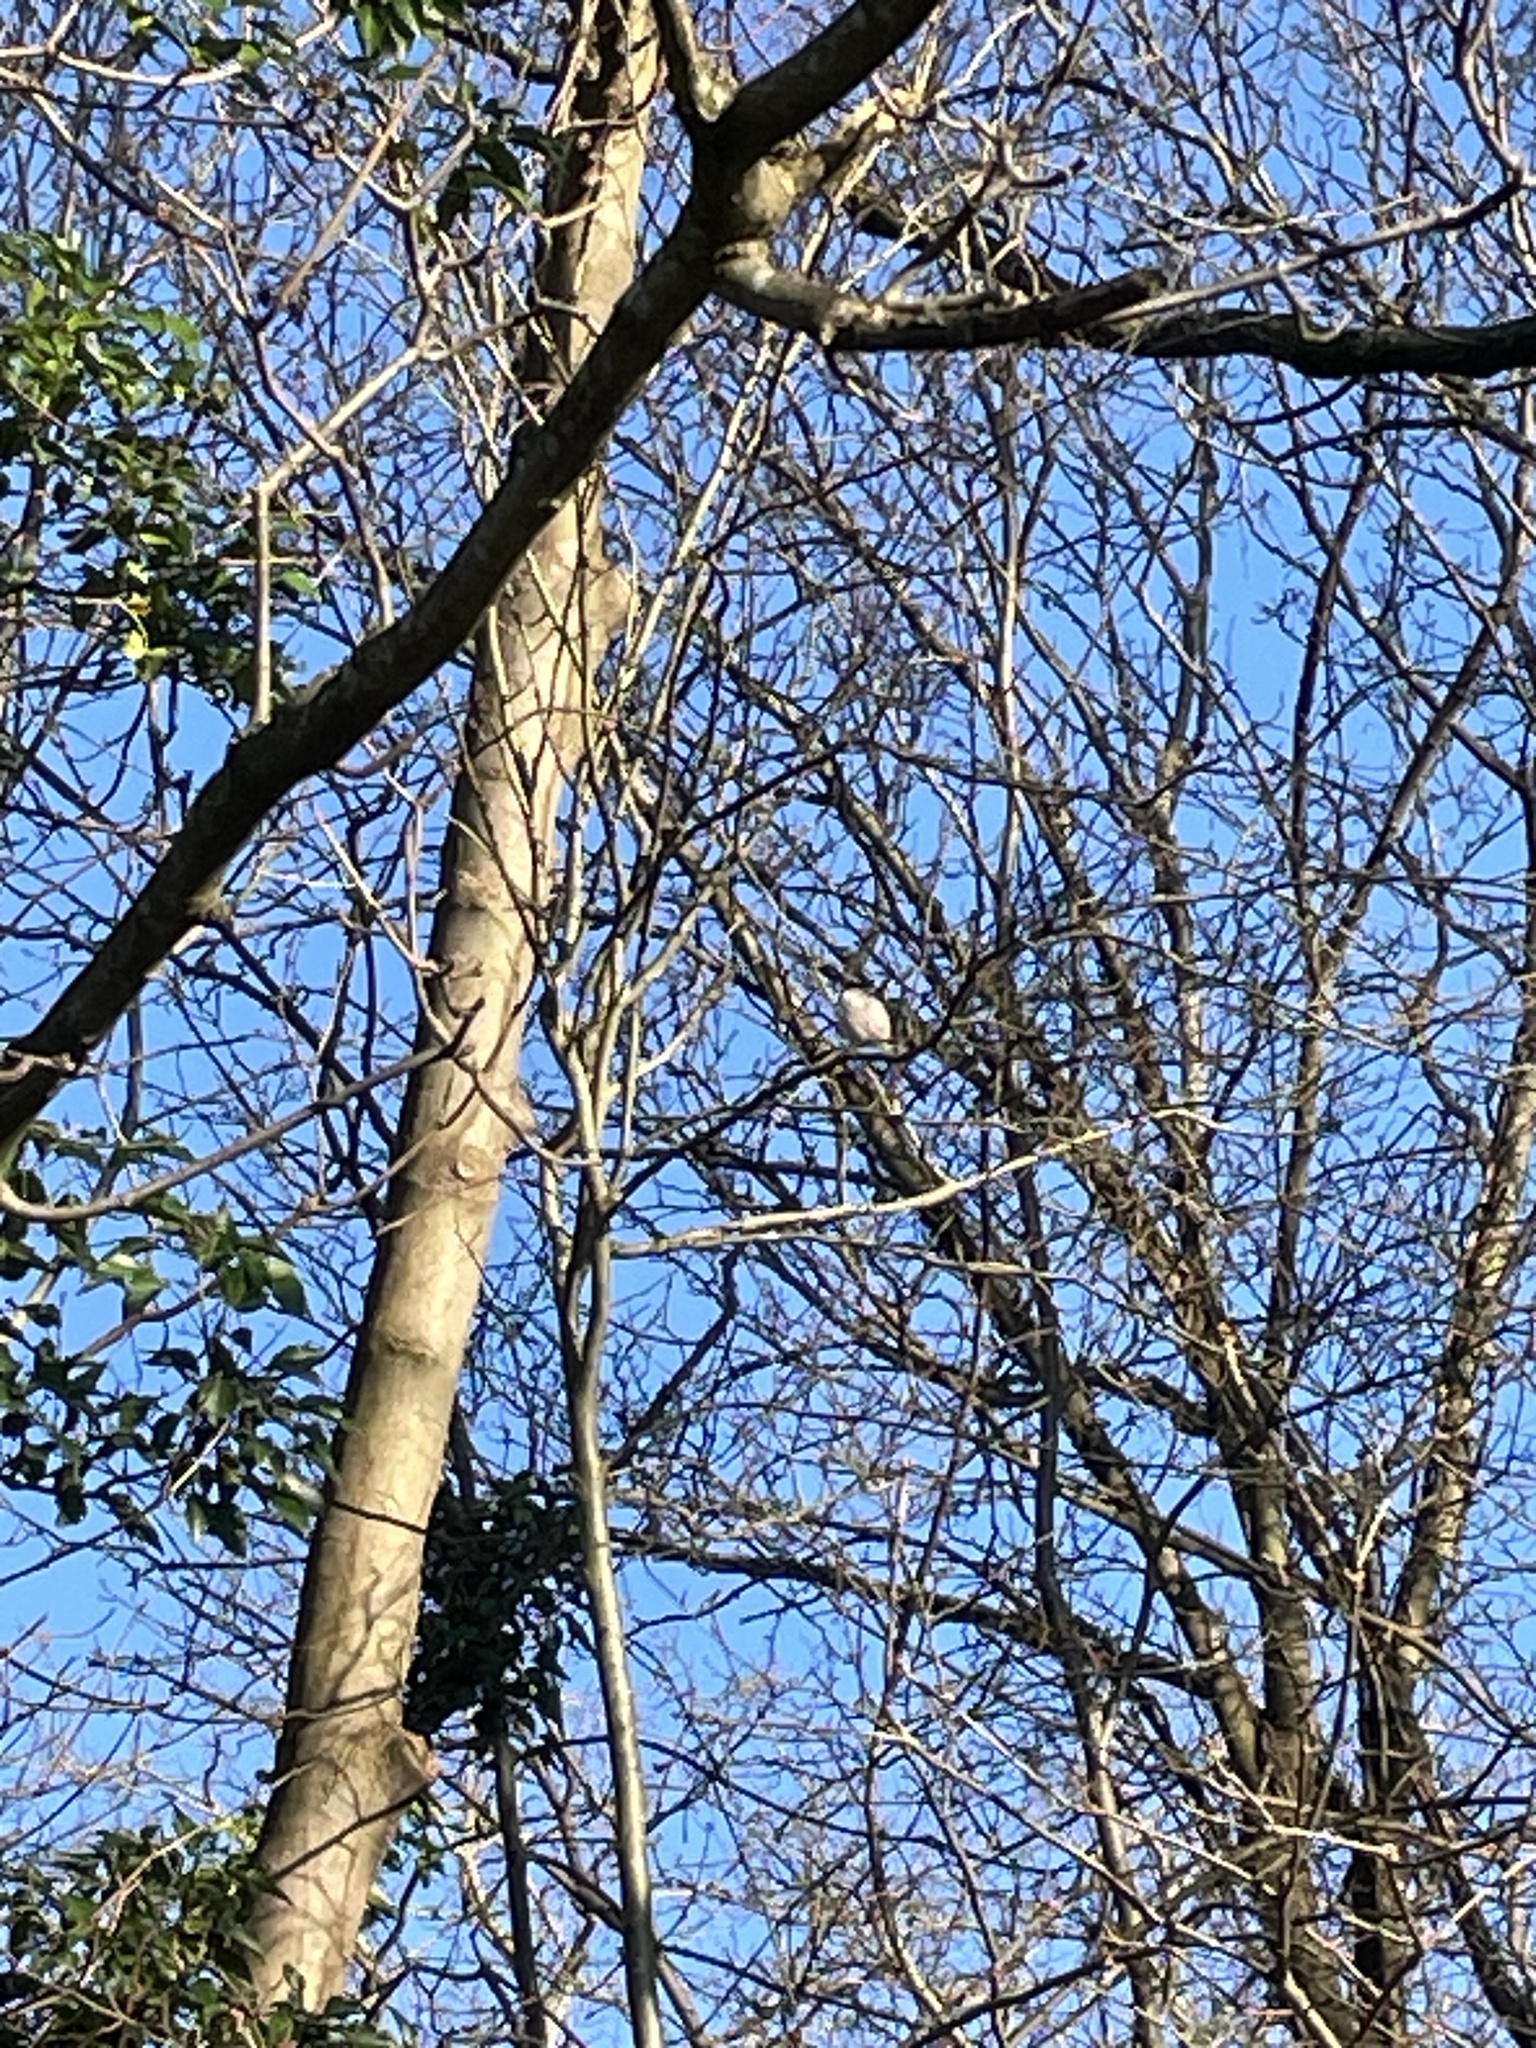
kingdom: Animalia
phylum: Chordata
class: Aves
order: Passeriformes
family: Aegithalidae
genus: Aegithalos
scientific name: Aegithalos caudatus
